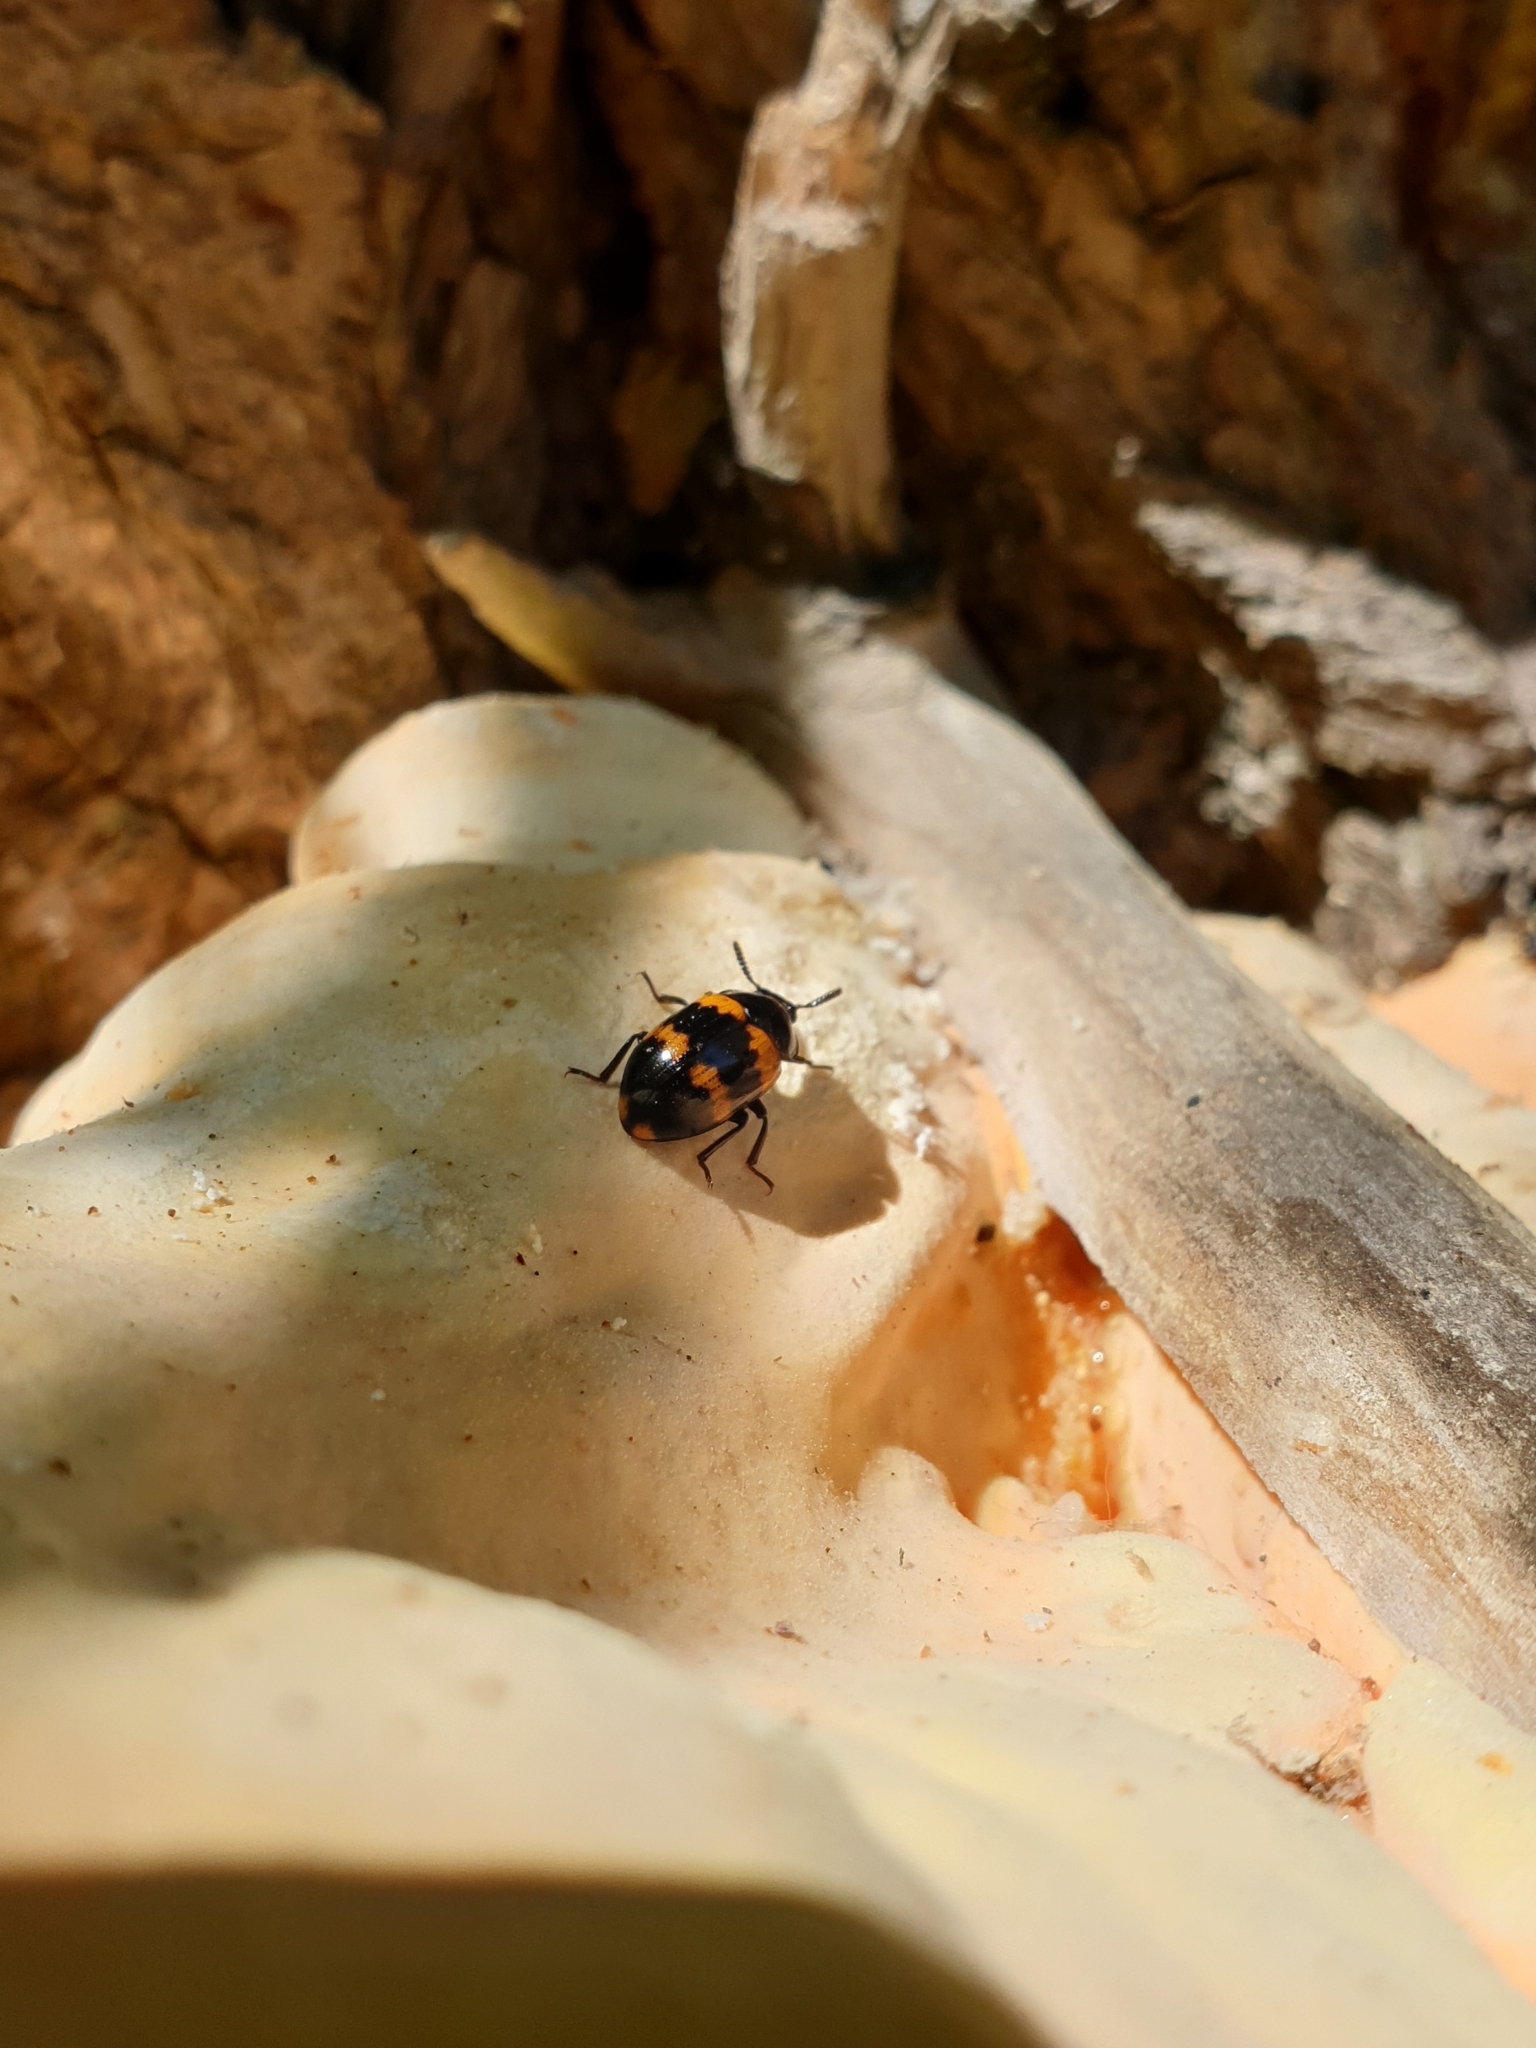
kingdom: Animalia
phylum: Arthropoda
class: Insecta
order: Coleoptera
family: Tenebrionidae
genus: Diaperis
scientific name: Diaperis boleti
